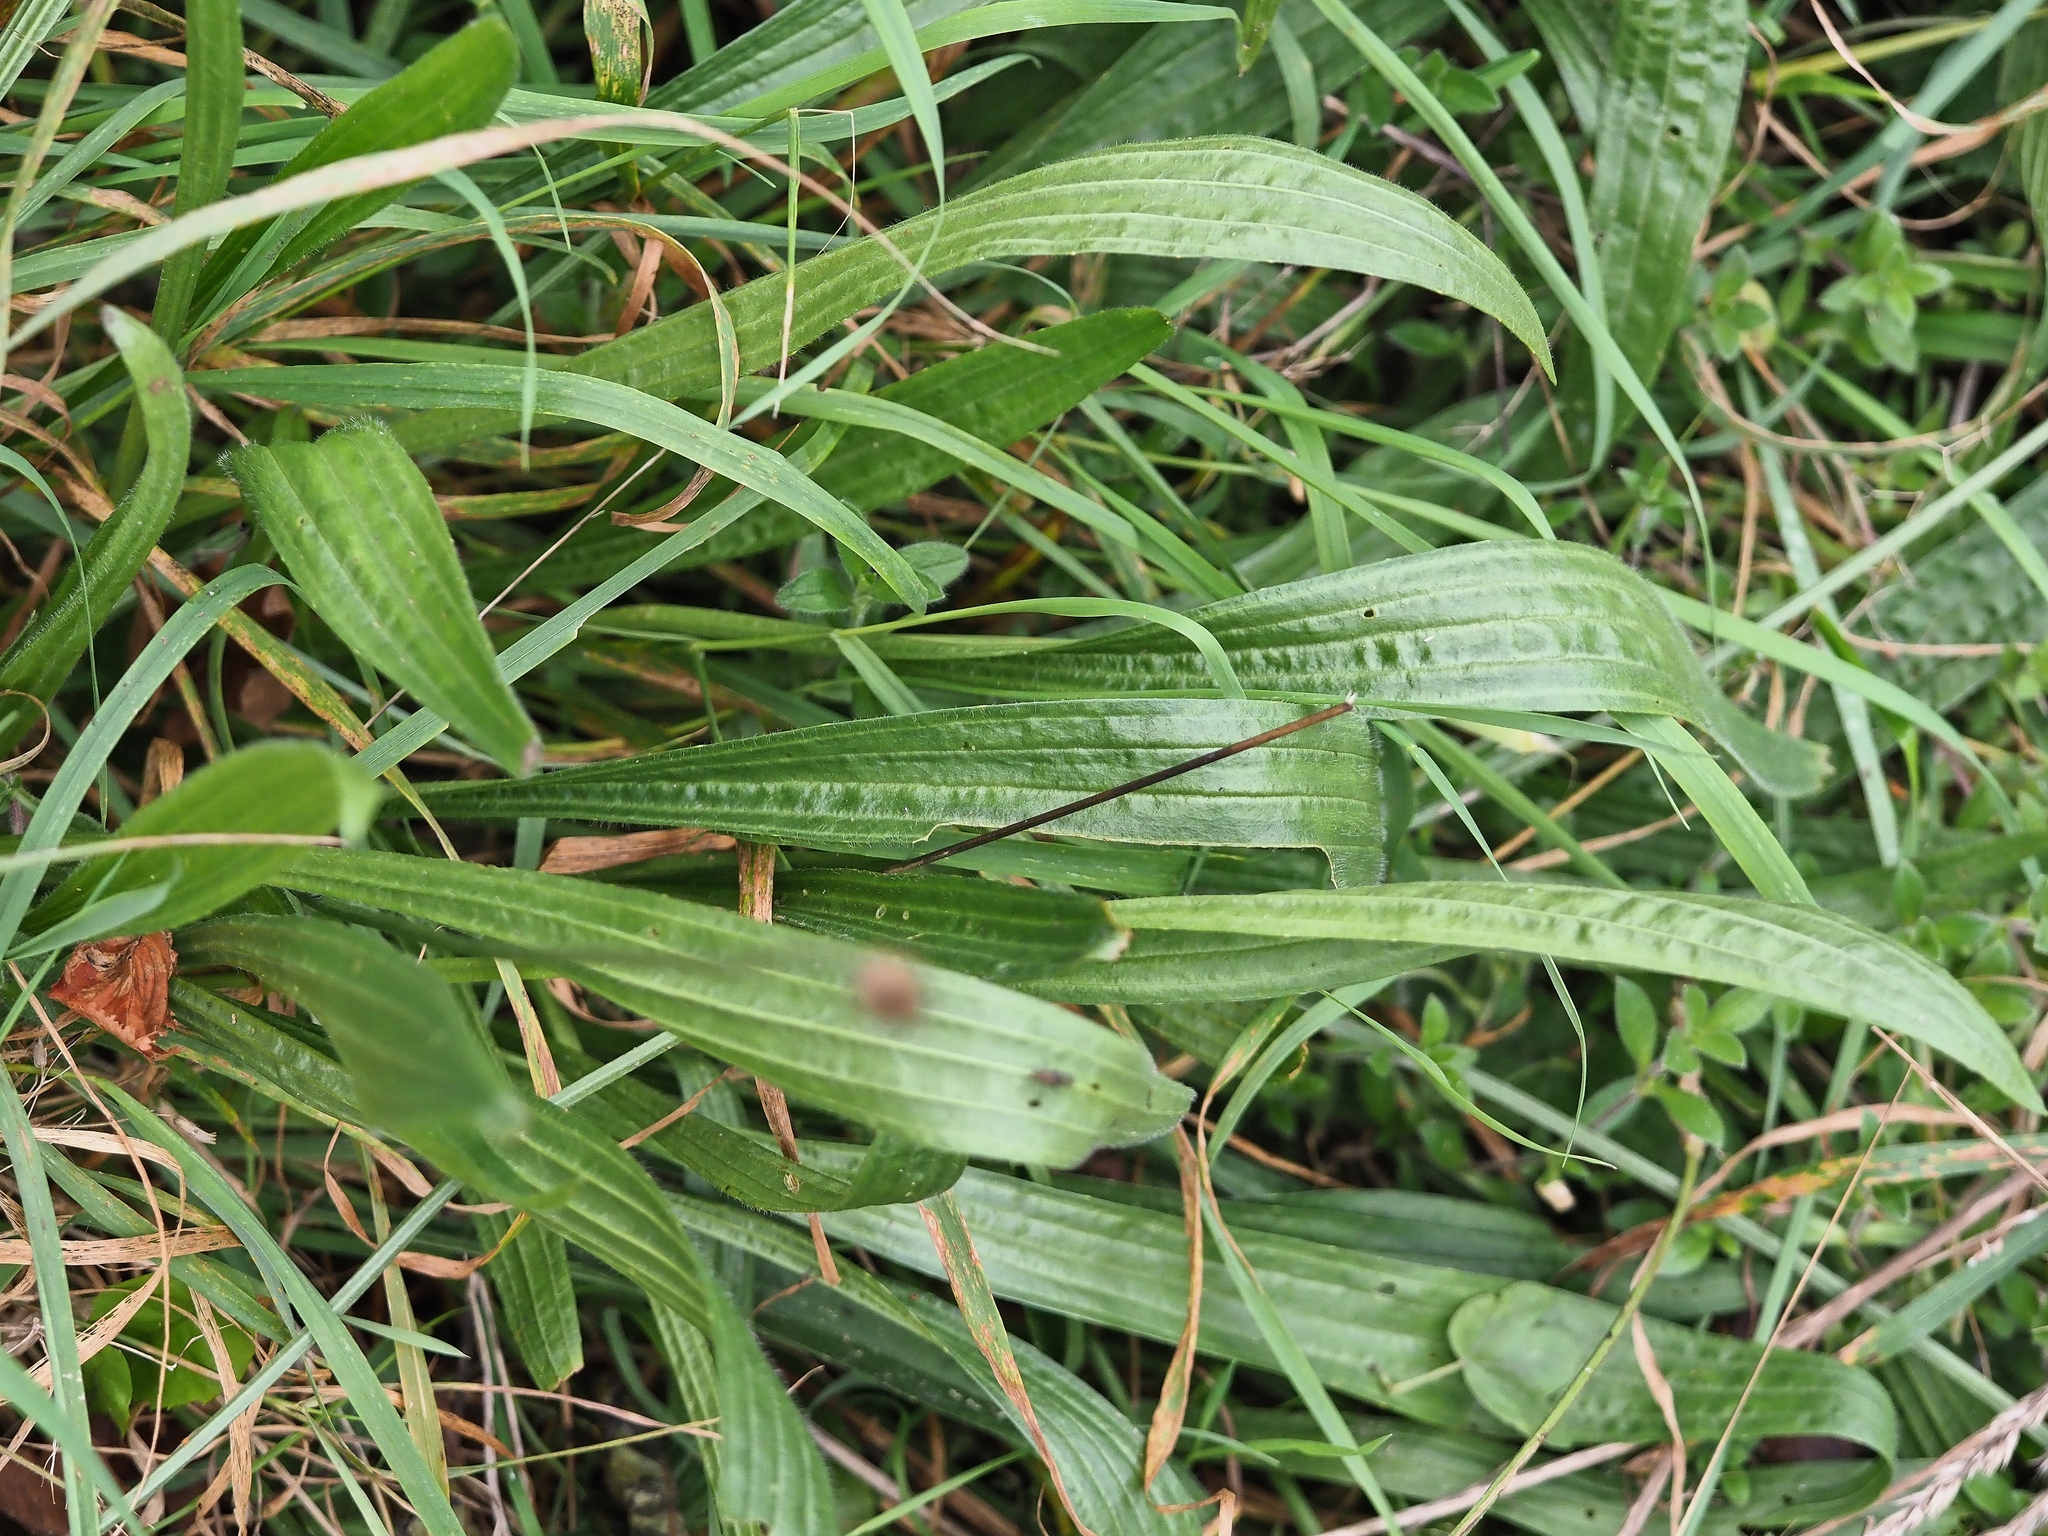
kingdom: Plantae
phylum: Tracheophyta
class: Magnoliopsida
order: Lamiales
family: Plantaginaceae
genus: Plantago
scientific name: Plantago lanceolata
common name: Ribwort plantain
